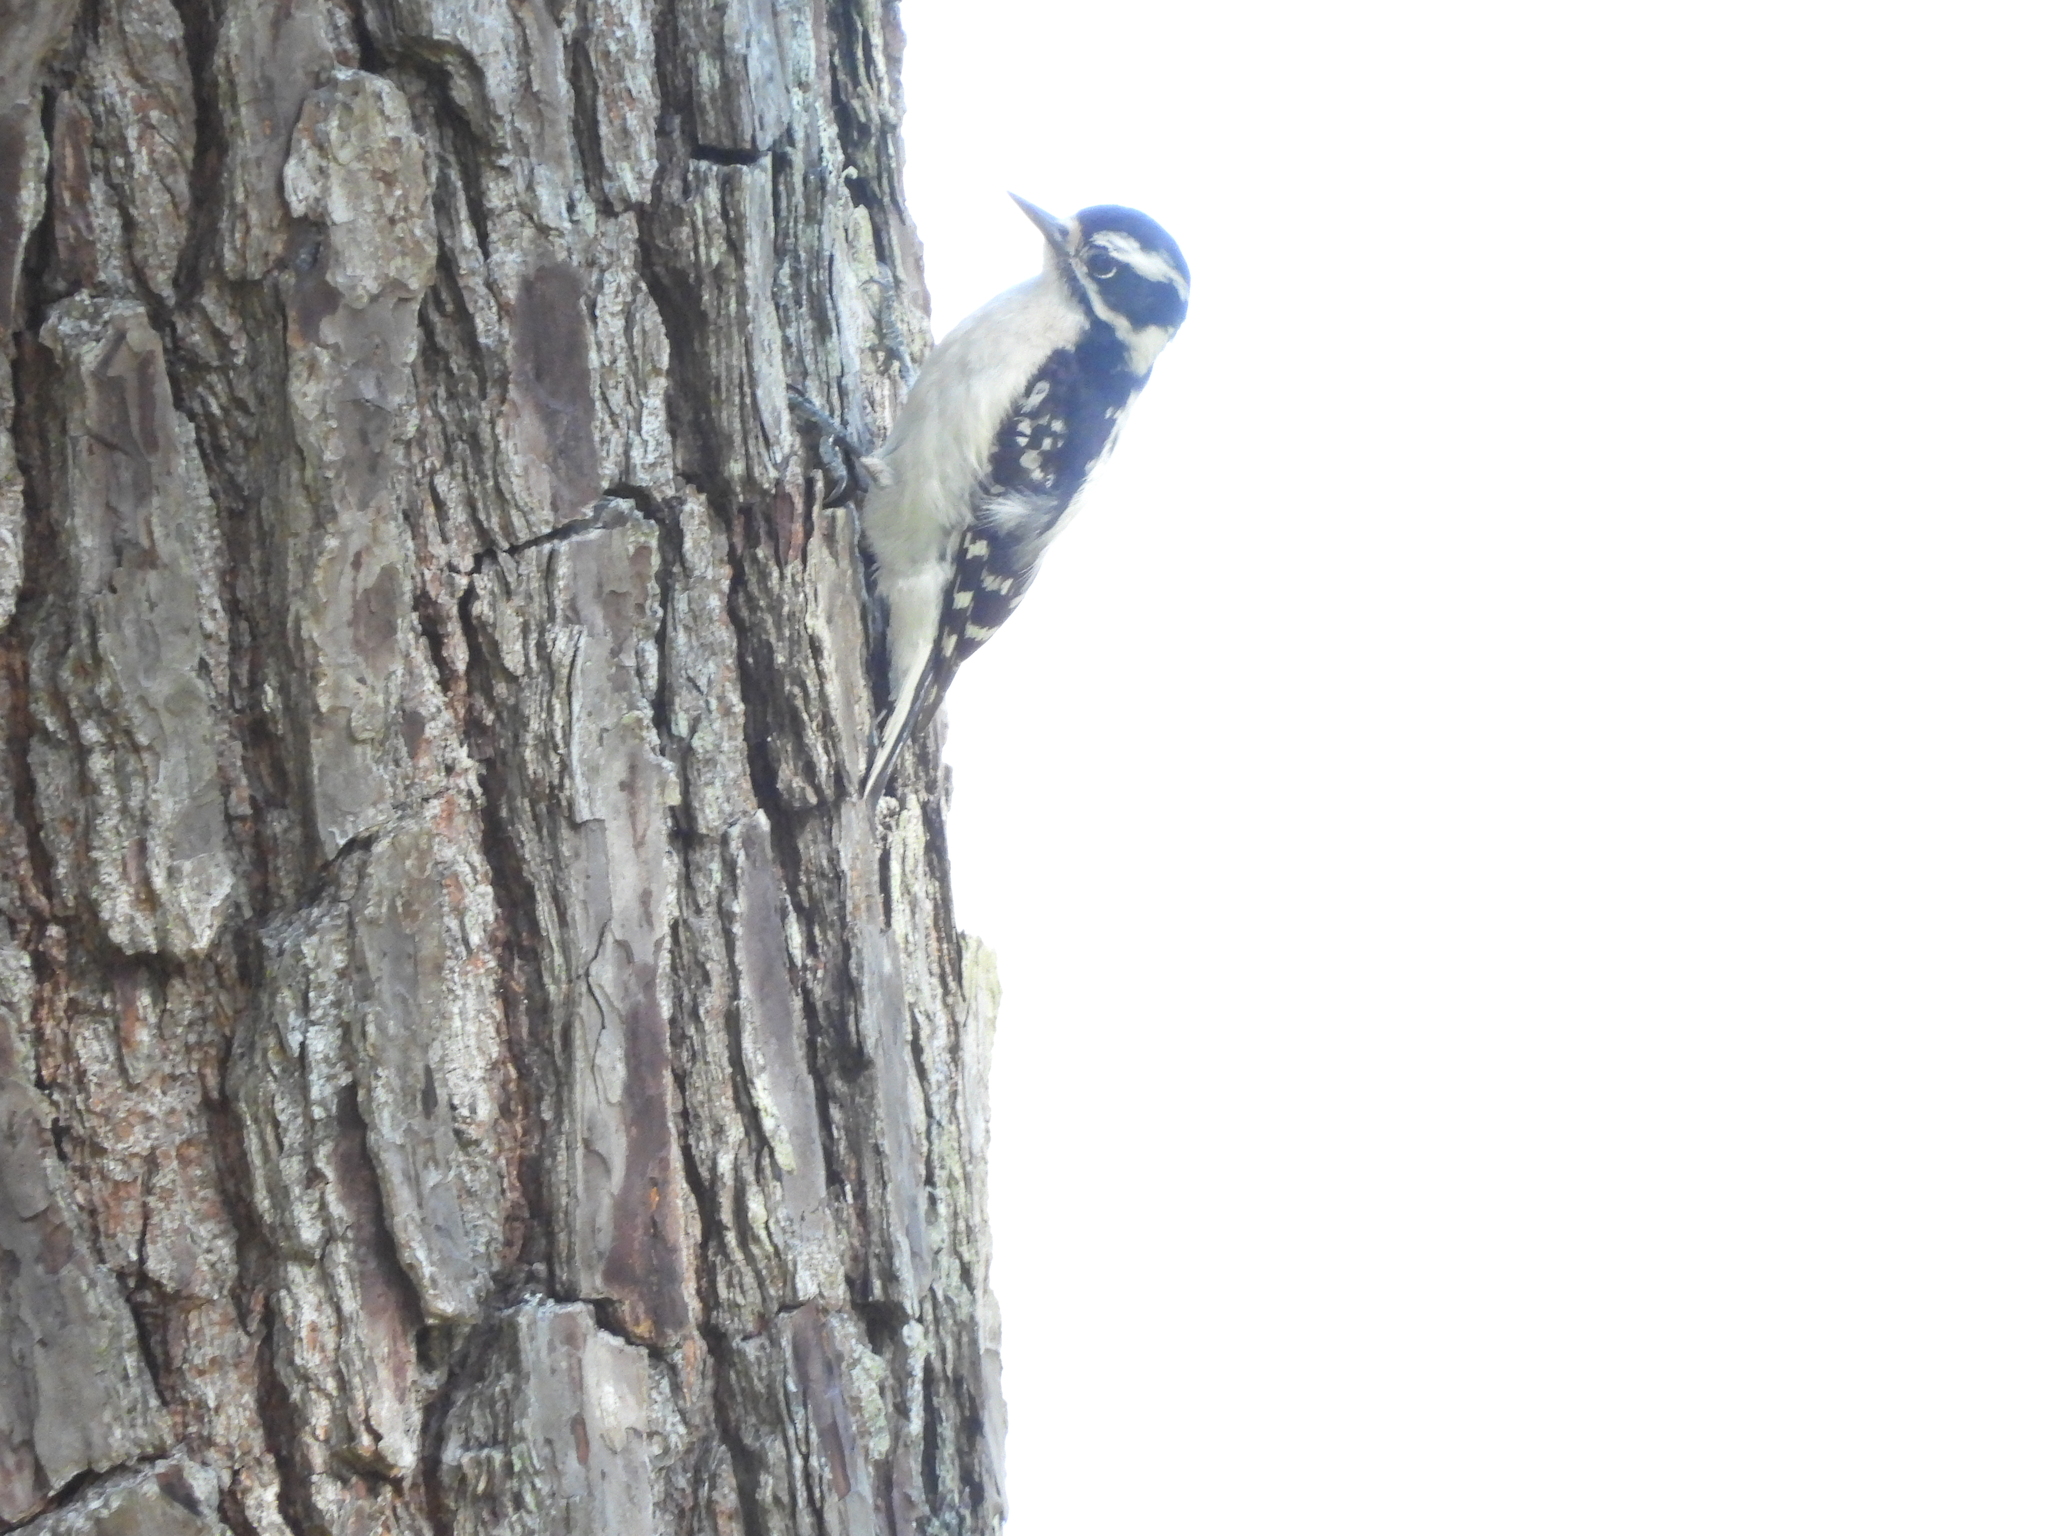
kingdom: Animalia
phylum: Chordata
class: Aves
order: Piciformes
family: Picidae
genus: Dryobates
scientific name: Dryobates pubescens
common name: Downy woodpecker
